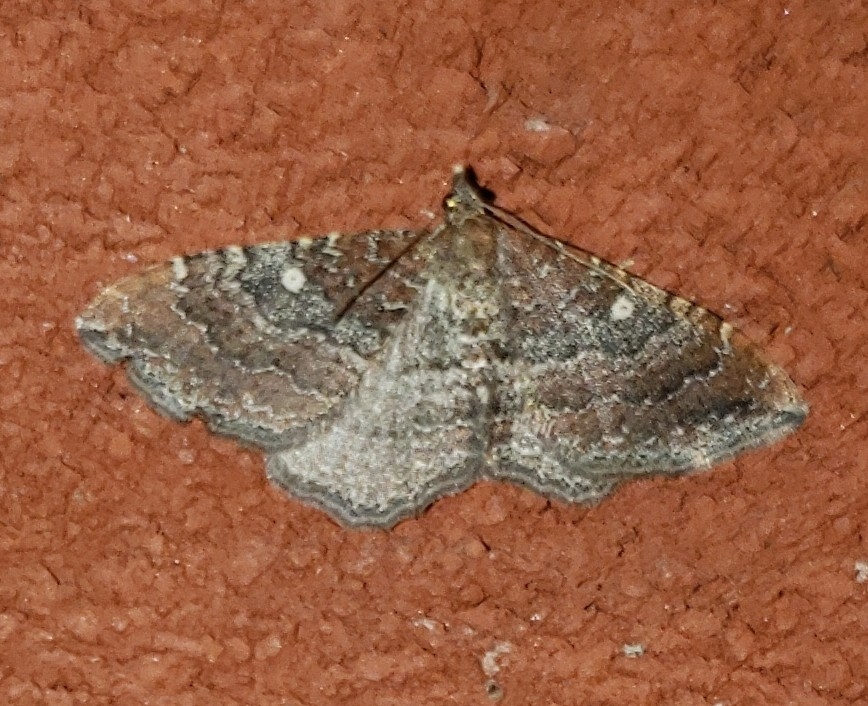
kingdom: Animalia
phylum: Arthropoda
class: Insecta
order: Lepidoptera
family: Geometridae
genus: Orthonama
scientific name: Orthonama obstipata
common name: The gem
